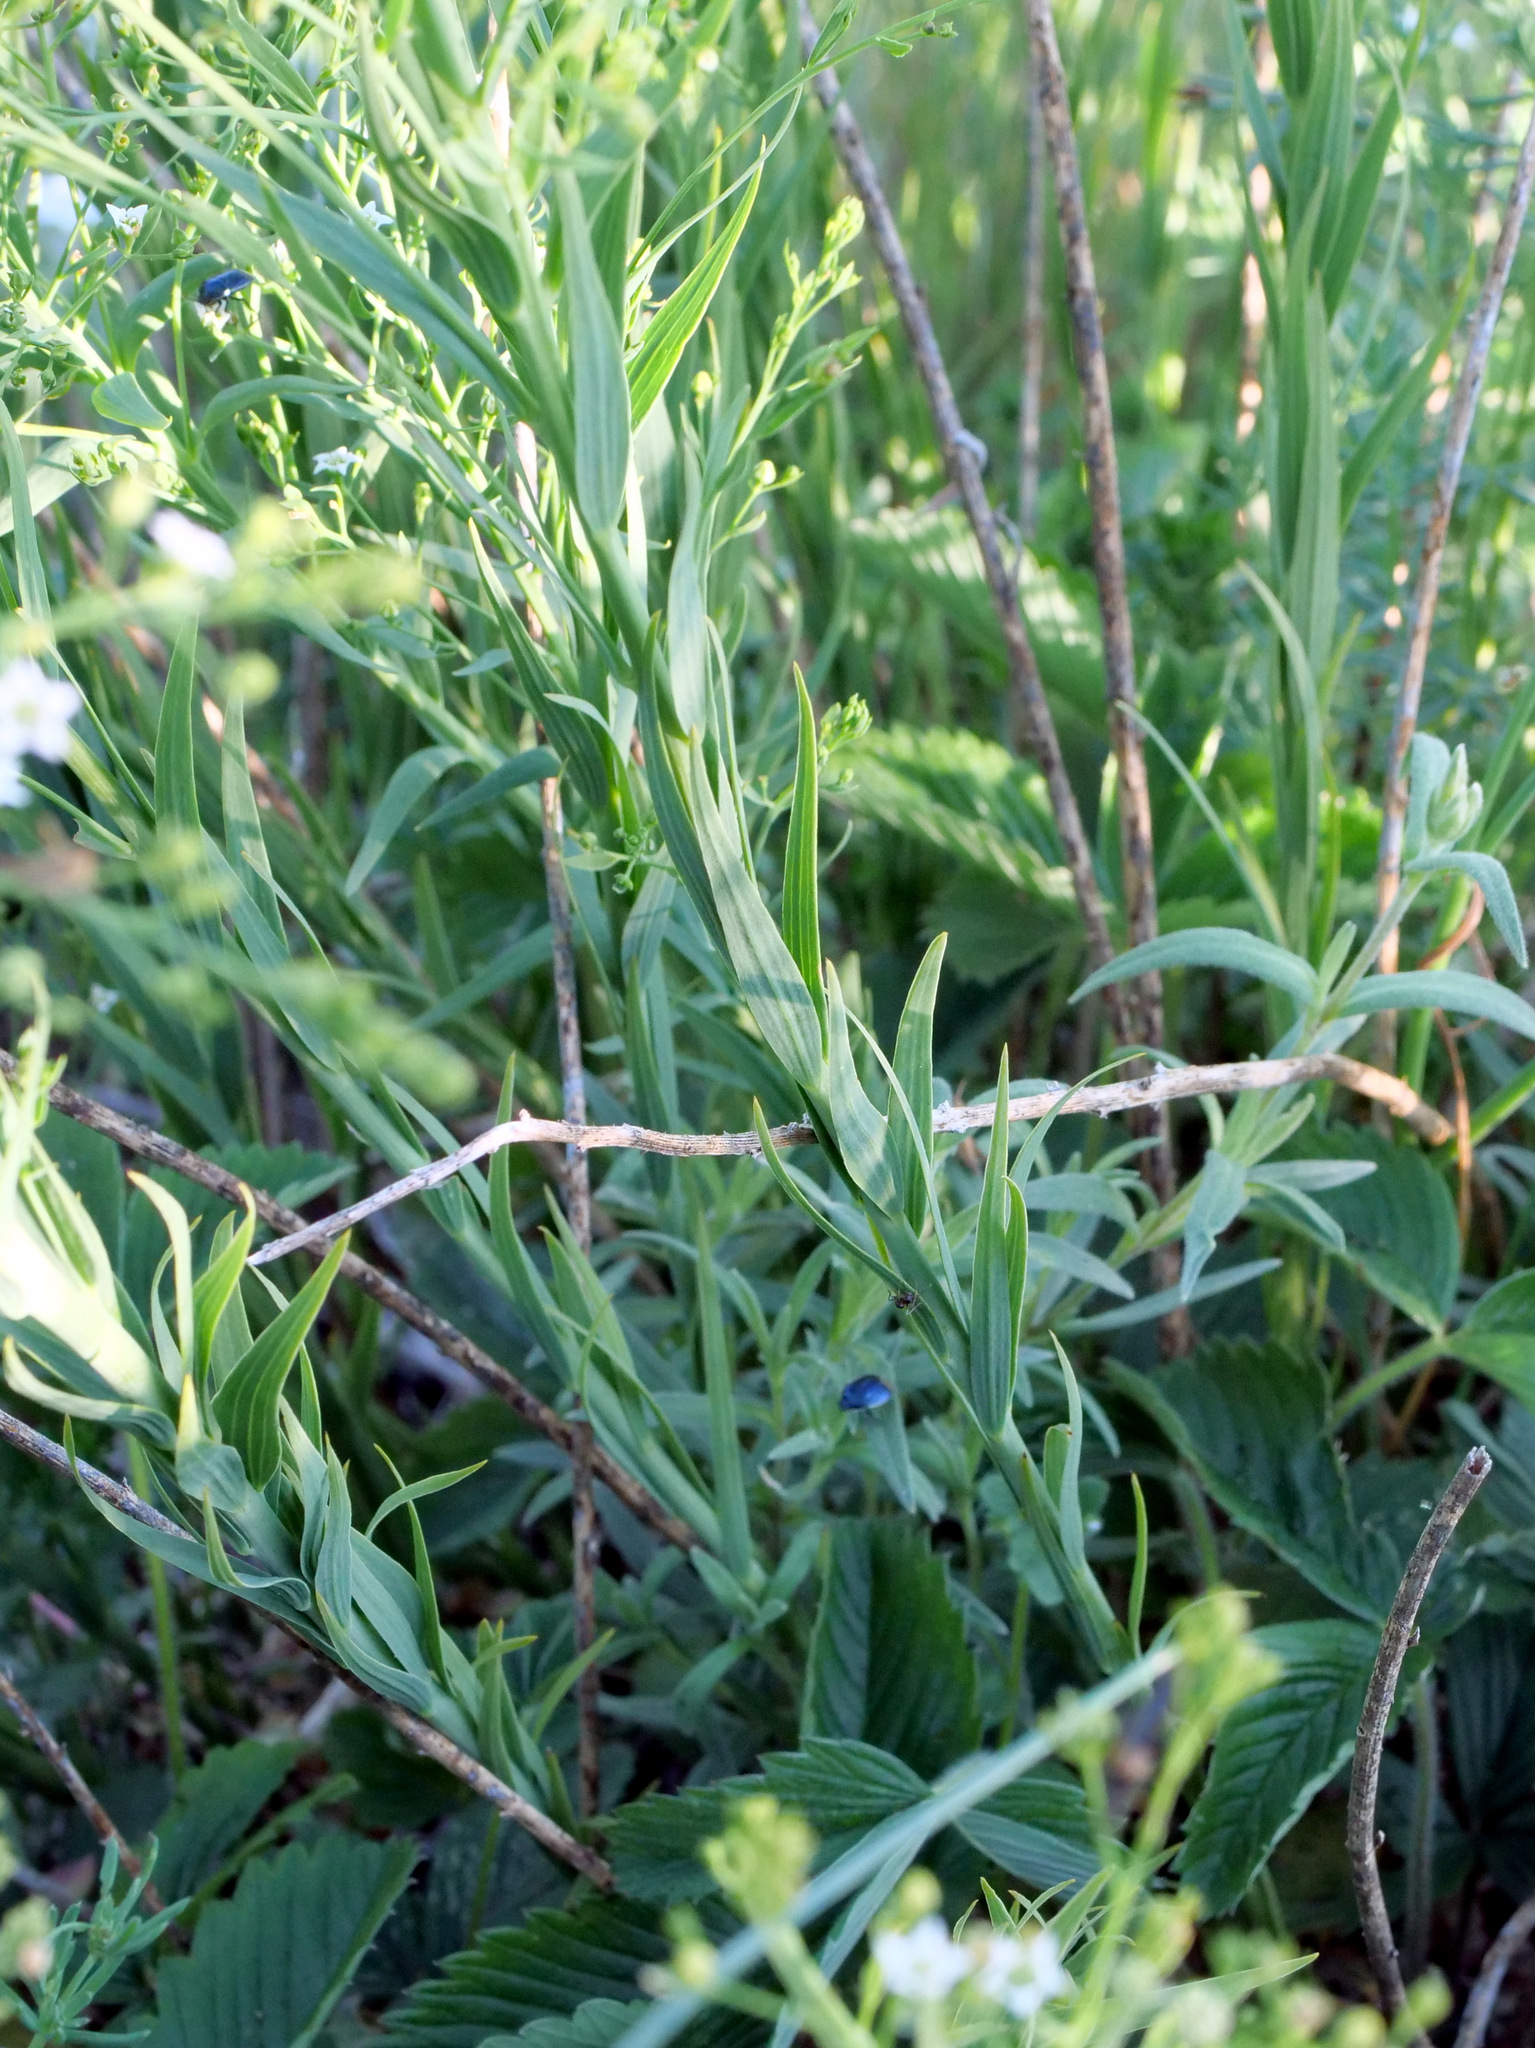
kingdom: Plantae
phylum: Tracheophyta
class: Magnoliopsida
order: Santalales
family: Thesiaceae
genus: Thesium
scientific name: Thesium bavarum
